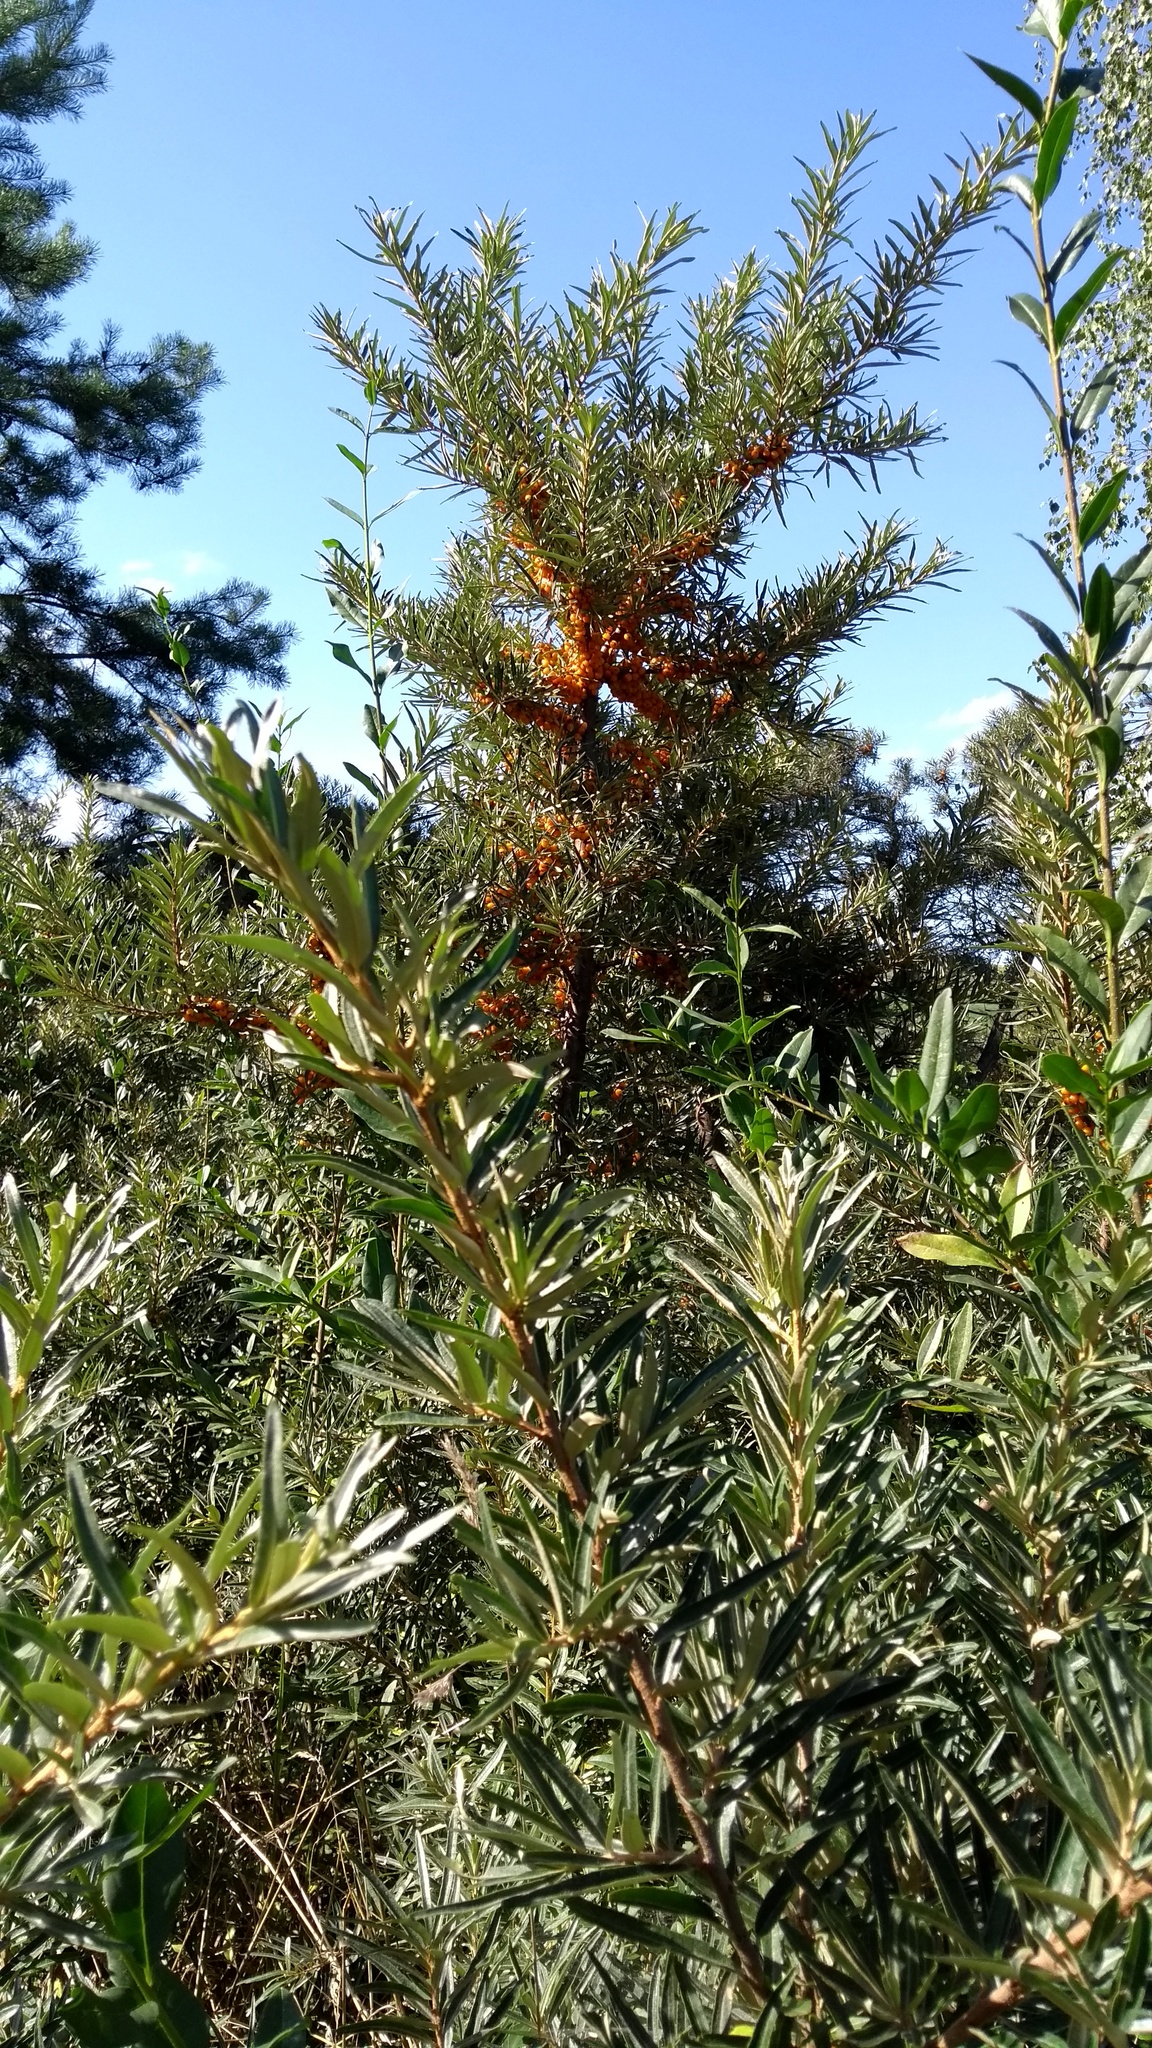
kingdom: Plantae
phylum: Tracheophyta
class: Magnoliopsida
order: Rosales
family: Elaeagnaceae
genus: Hippophae
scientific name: Hippophae rhamnoides
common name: Sea-buckthorn
